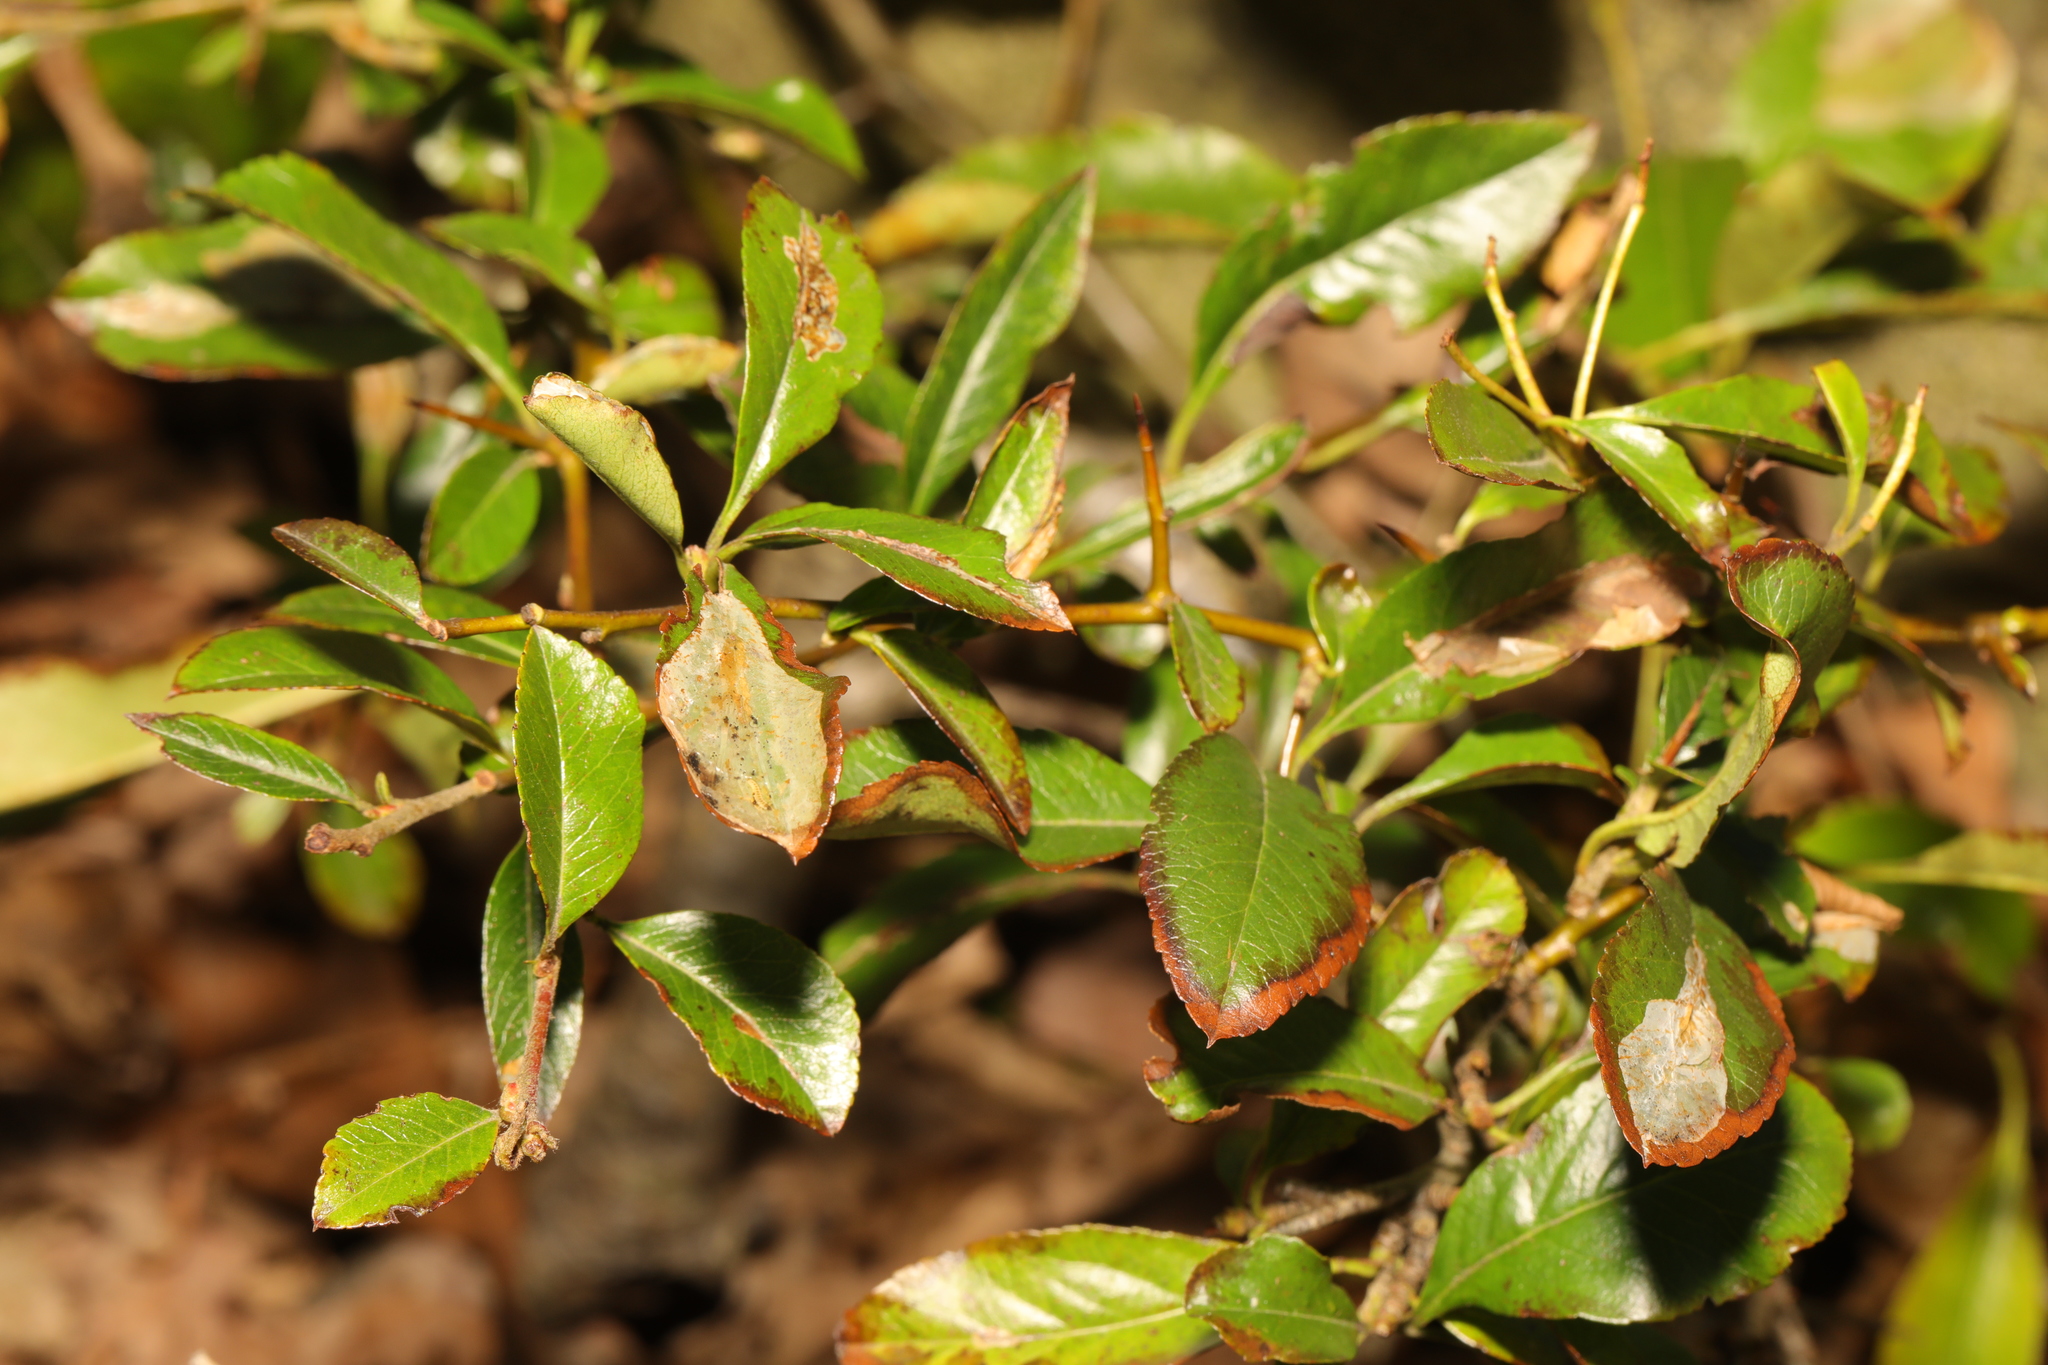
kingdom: Plantae
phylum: Tracheophyta
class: Magnoliopsida
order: Rosales
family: Rosaceae
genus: Pyracantha
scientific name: Pyracantha coccinea
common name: Firethorn
